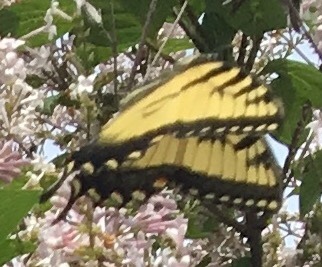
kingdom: Animalia
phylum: Arthropoda
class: Insecta
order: Lepidoptera
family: Papilionidae
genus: Papilio
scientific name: Papilio glaucus
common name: Tiger swallowtail
